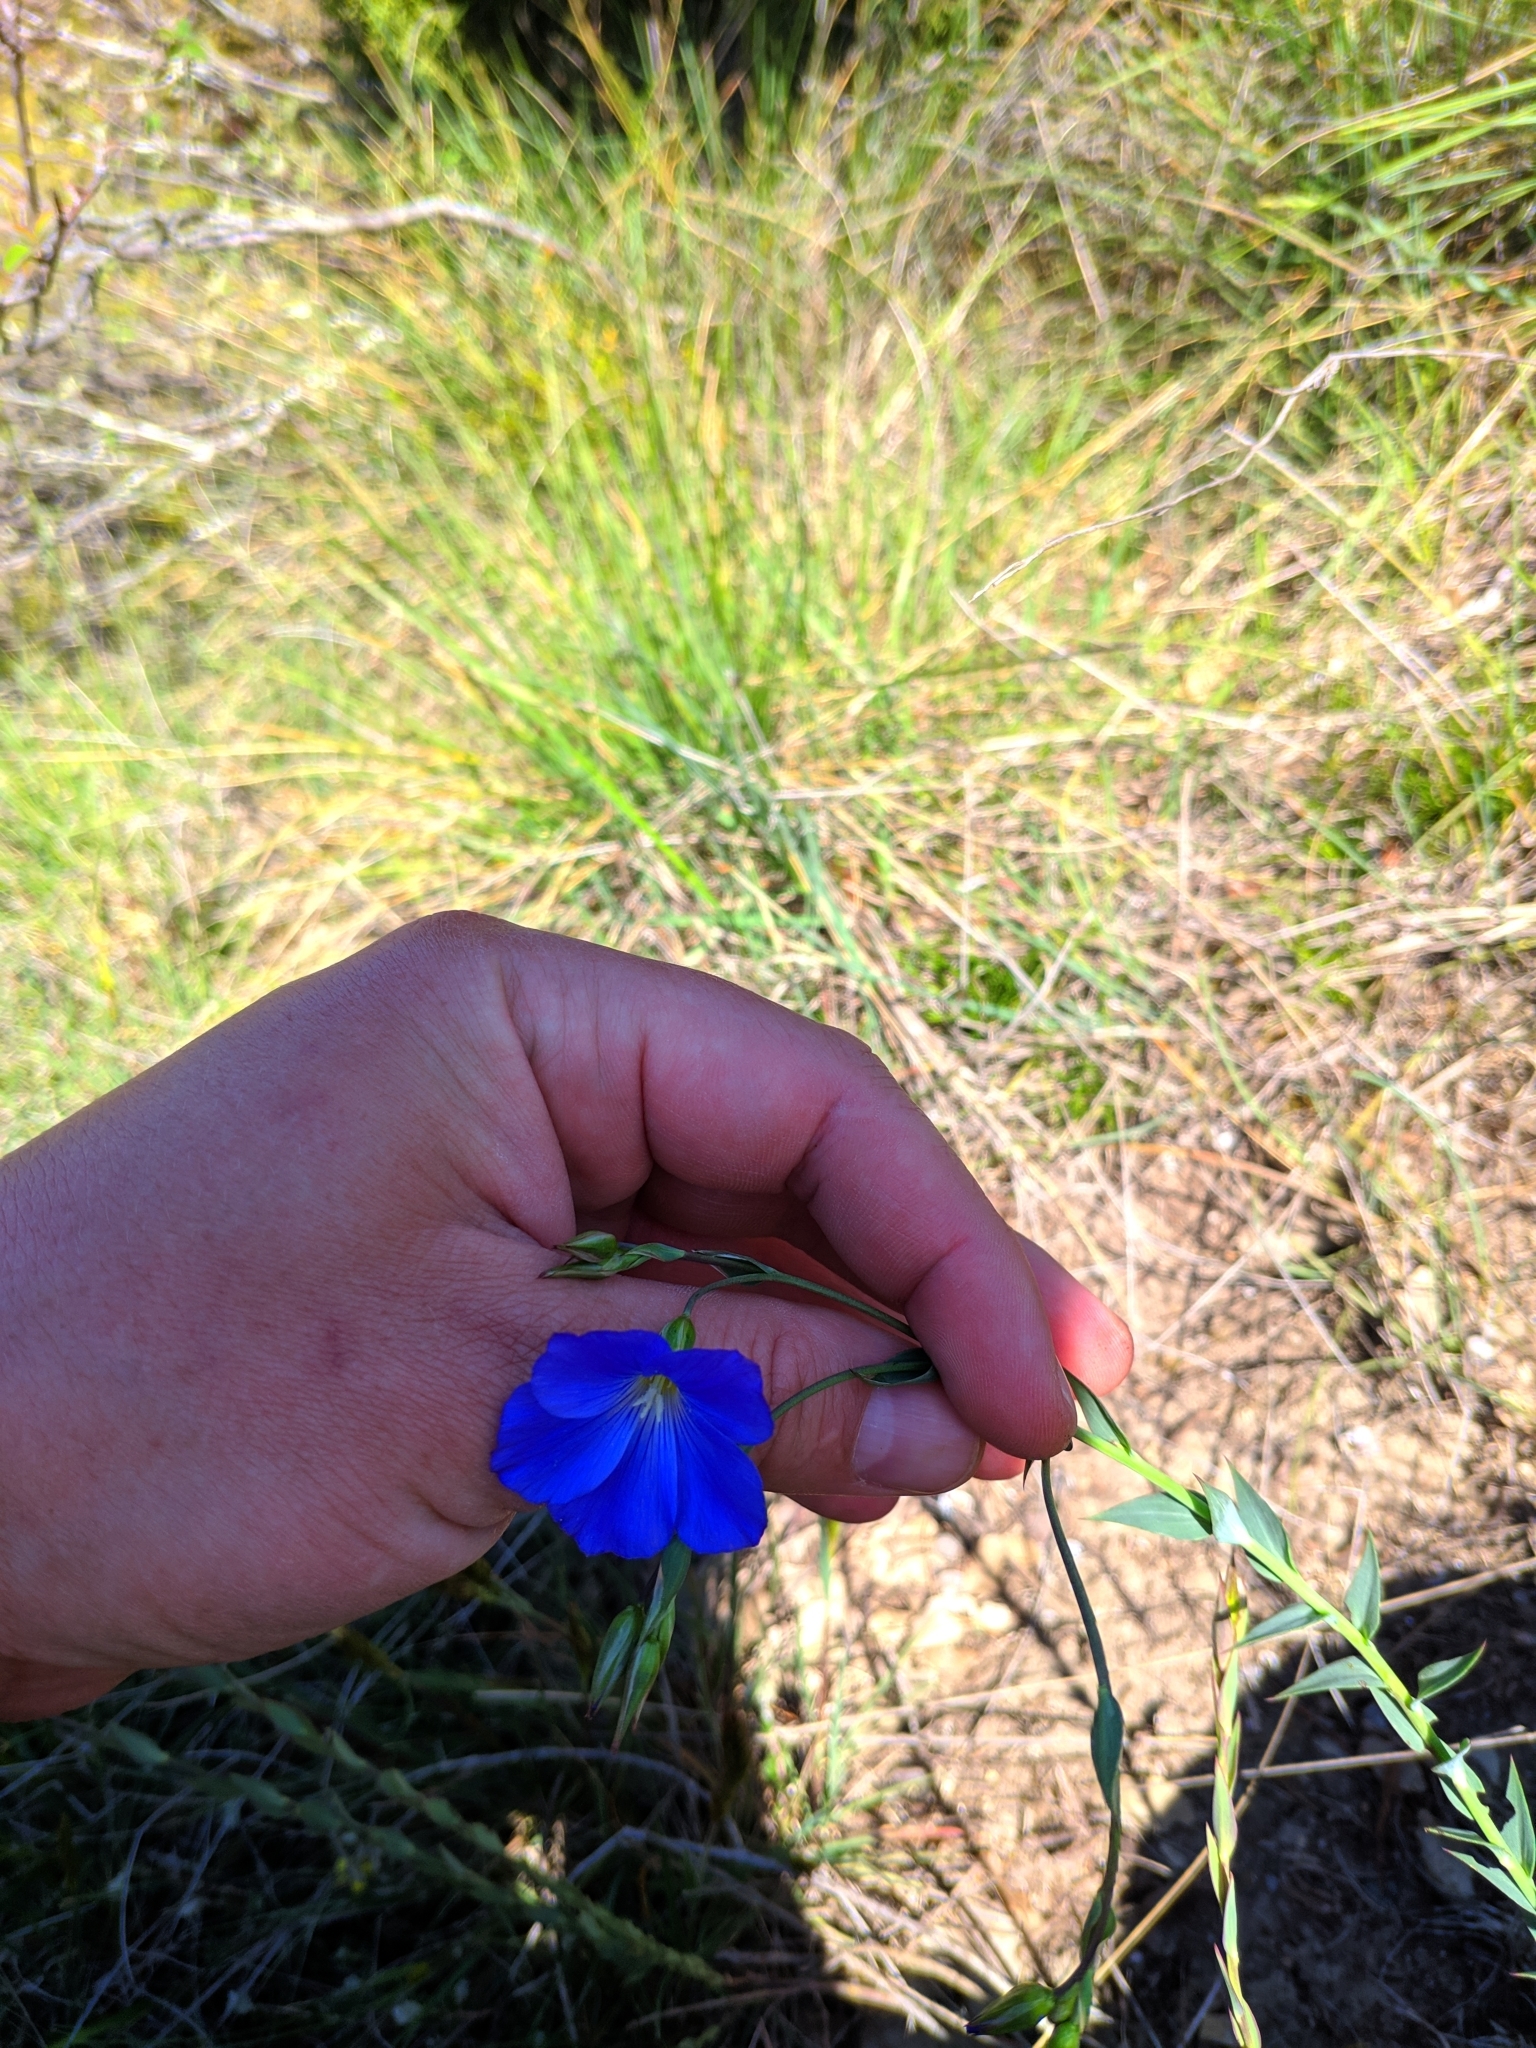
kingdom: Plantae
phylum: Tracheophyta
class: Magnoliopsida
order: Malpighiales
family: Linaceae
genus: Linum
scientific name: Linum narbonense
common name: Flax
